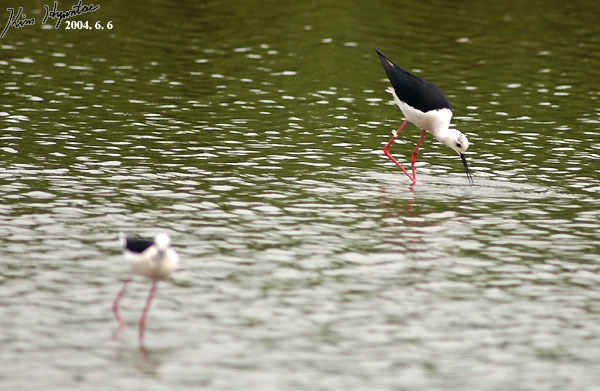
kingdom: Animalia
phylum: Chordata
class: Aves
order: Charadriiformes
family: Recurvirostridae
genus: Himantopus
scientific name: Himantopus himantopus
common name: Black-winged stilt
